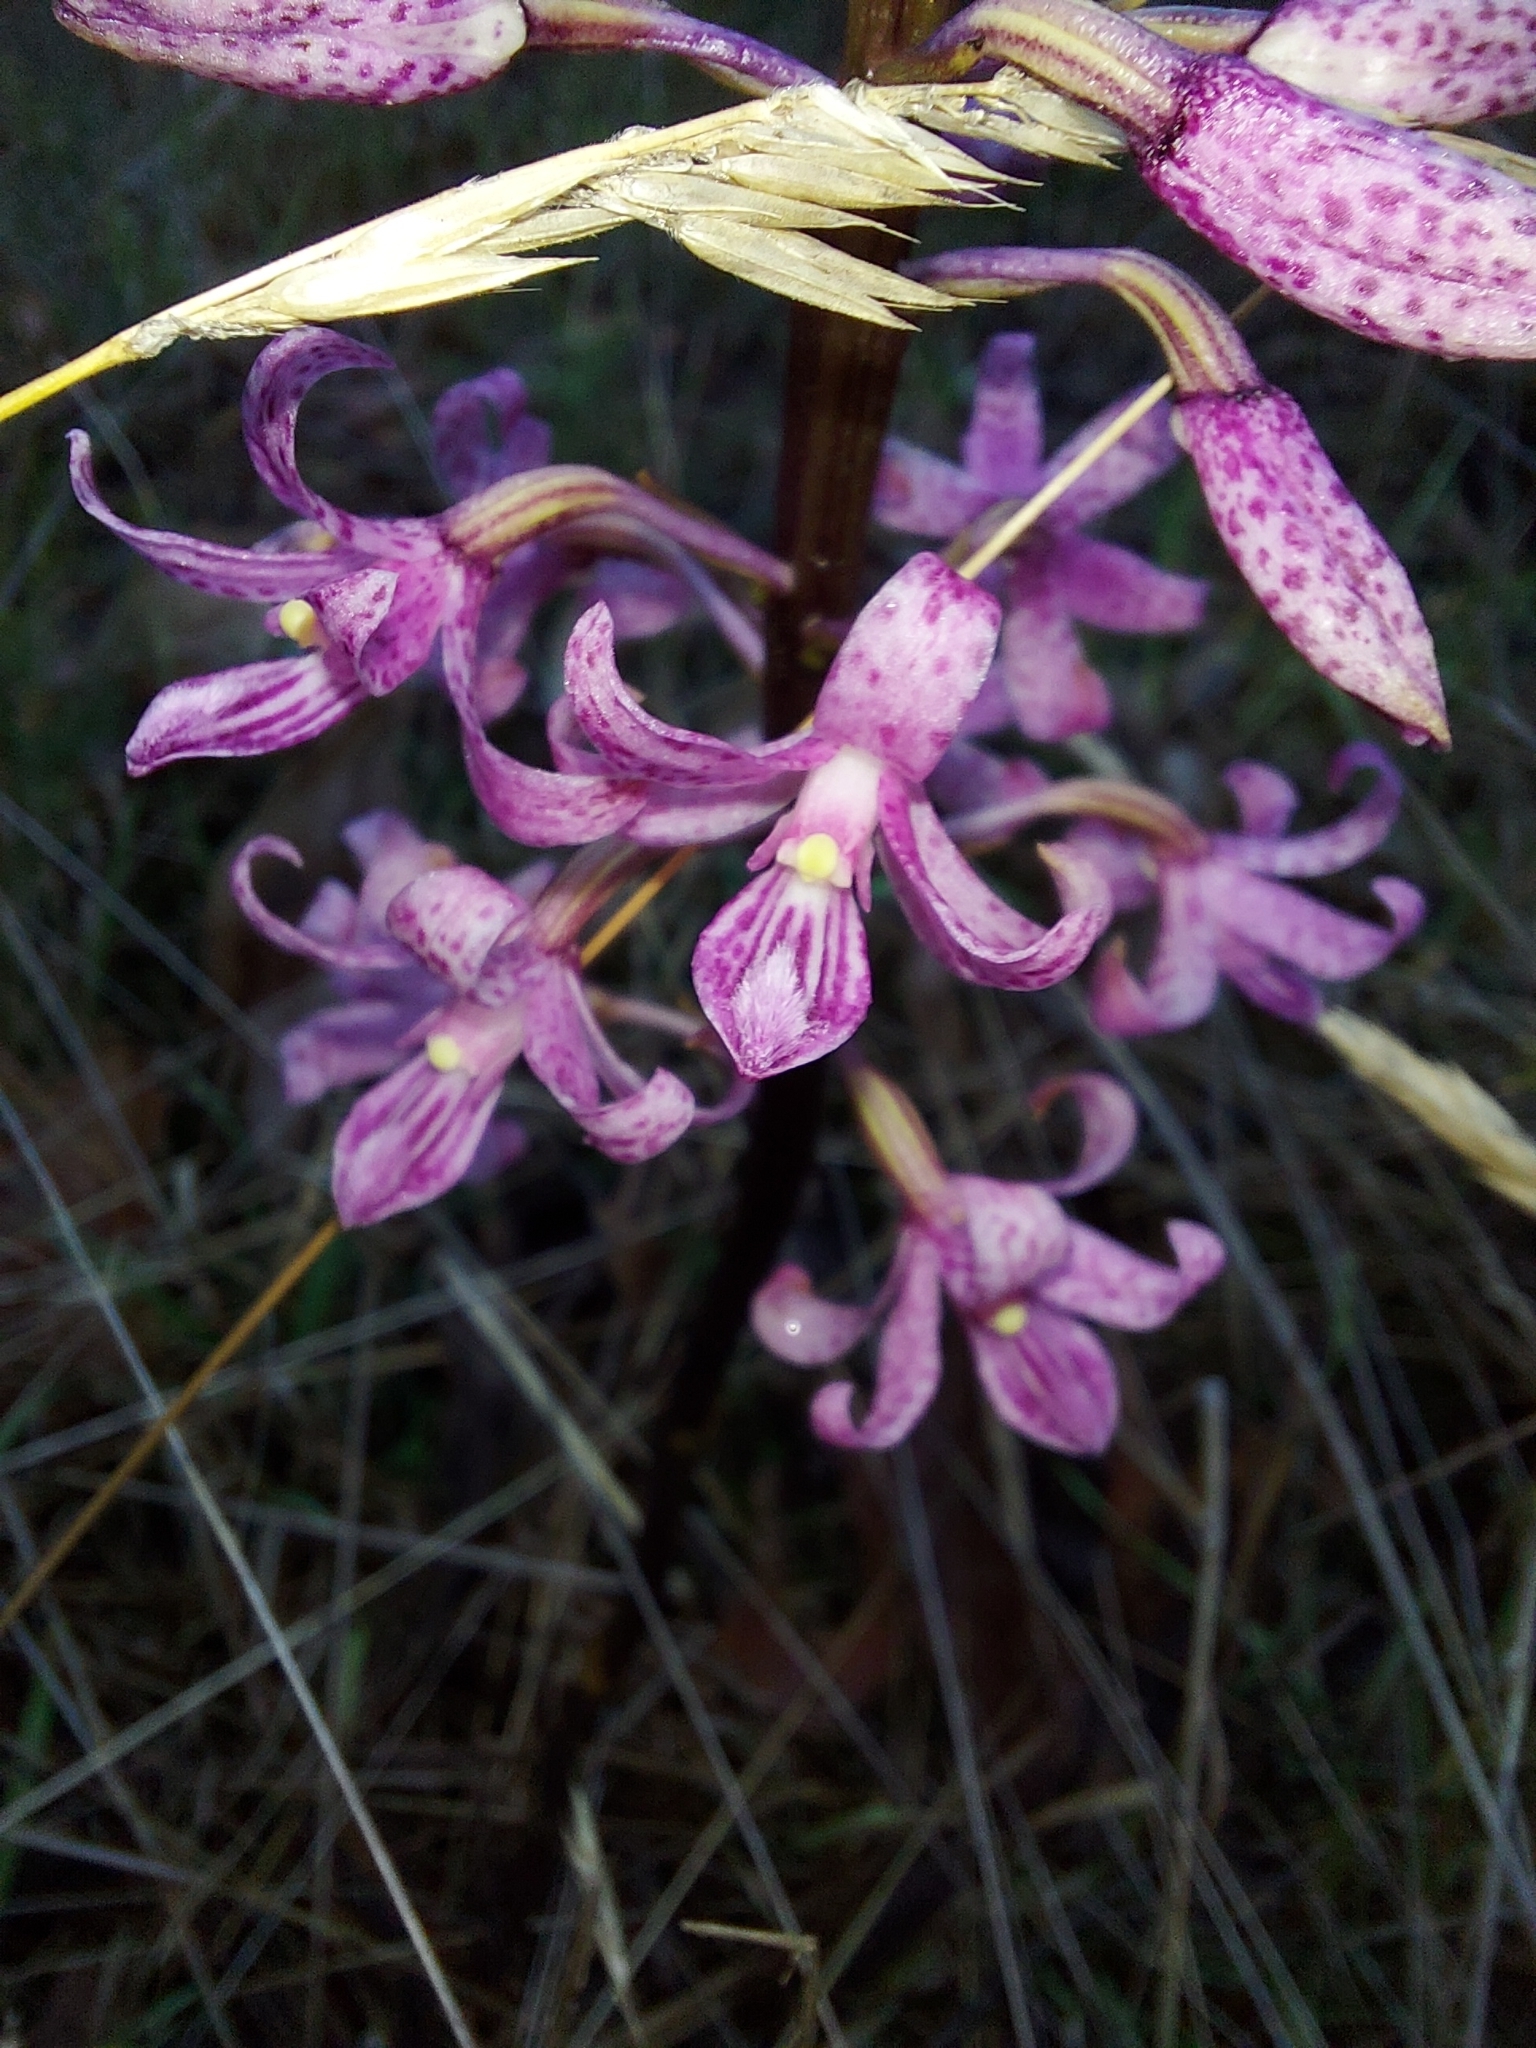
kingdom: Plantae
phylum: Tracheophyta
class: Liliopsida
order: Asparagales
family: Orchidaceae
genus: Dipodium
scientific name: Dipodium roseum
